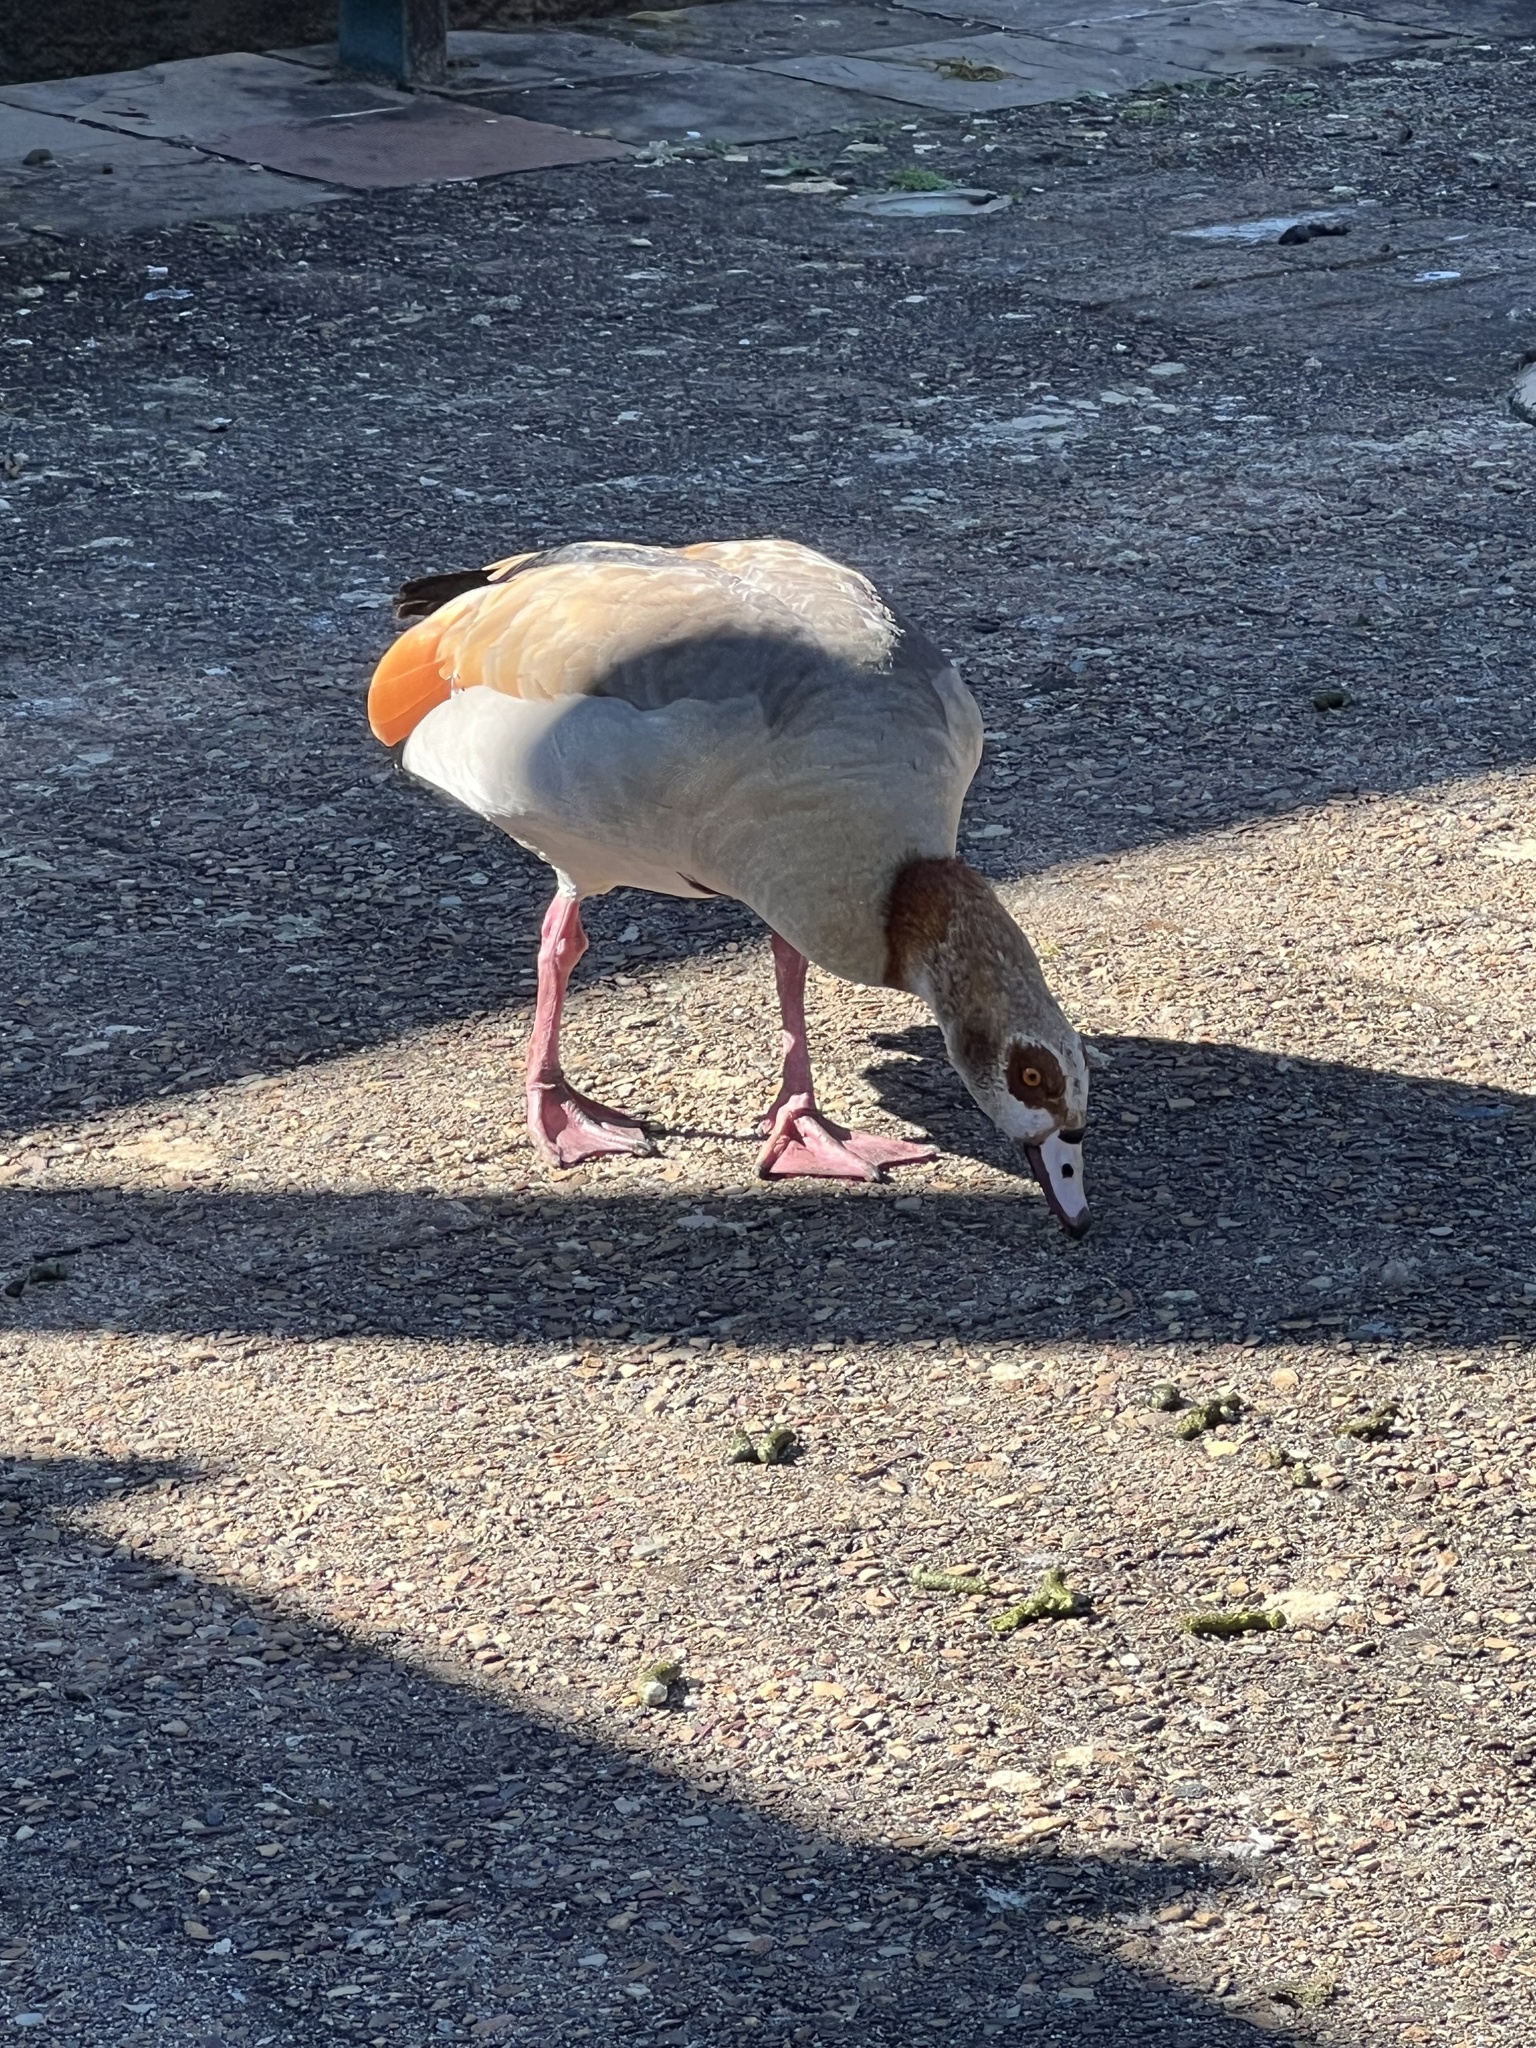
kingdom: Animalia
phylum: Chordata
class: Aves
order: Anseriformes
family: Anatidae
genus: Alopochen
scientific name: Alopochen aegyptiaca
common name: Egyptian goose
